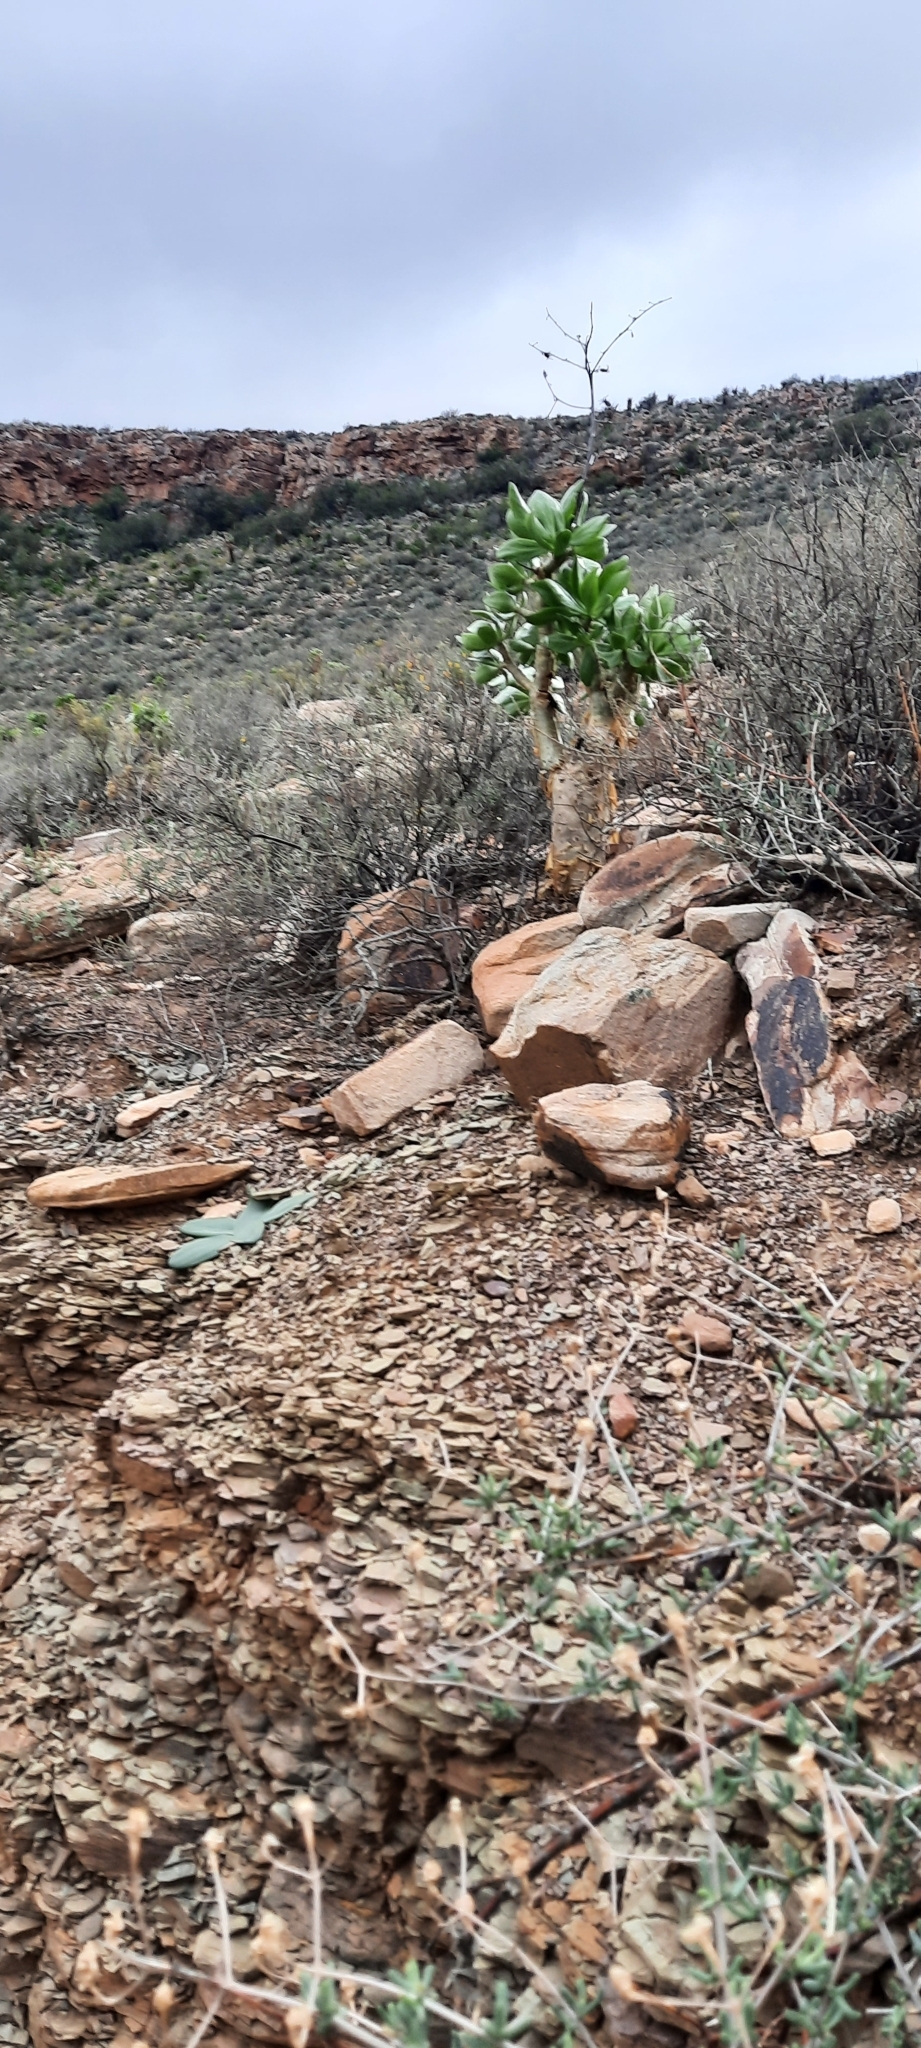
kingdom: Plantae
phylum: Tracheophyta
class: Magnoliopsida
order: Saxifragales
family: Crassulaceae
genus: Tylecodon
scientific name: Tylecodon paniculatus
